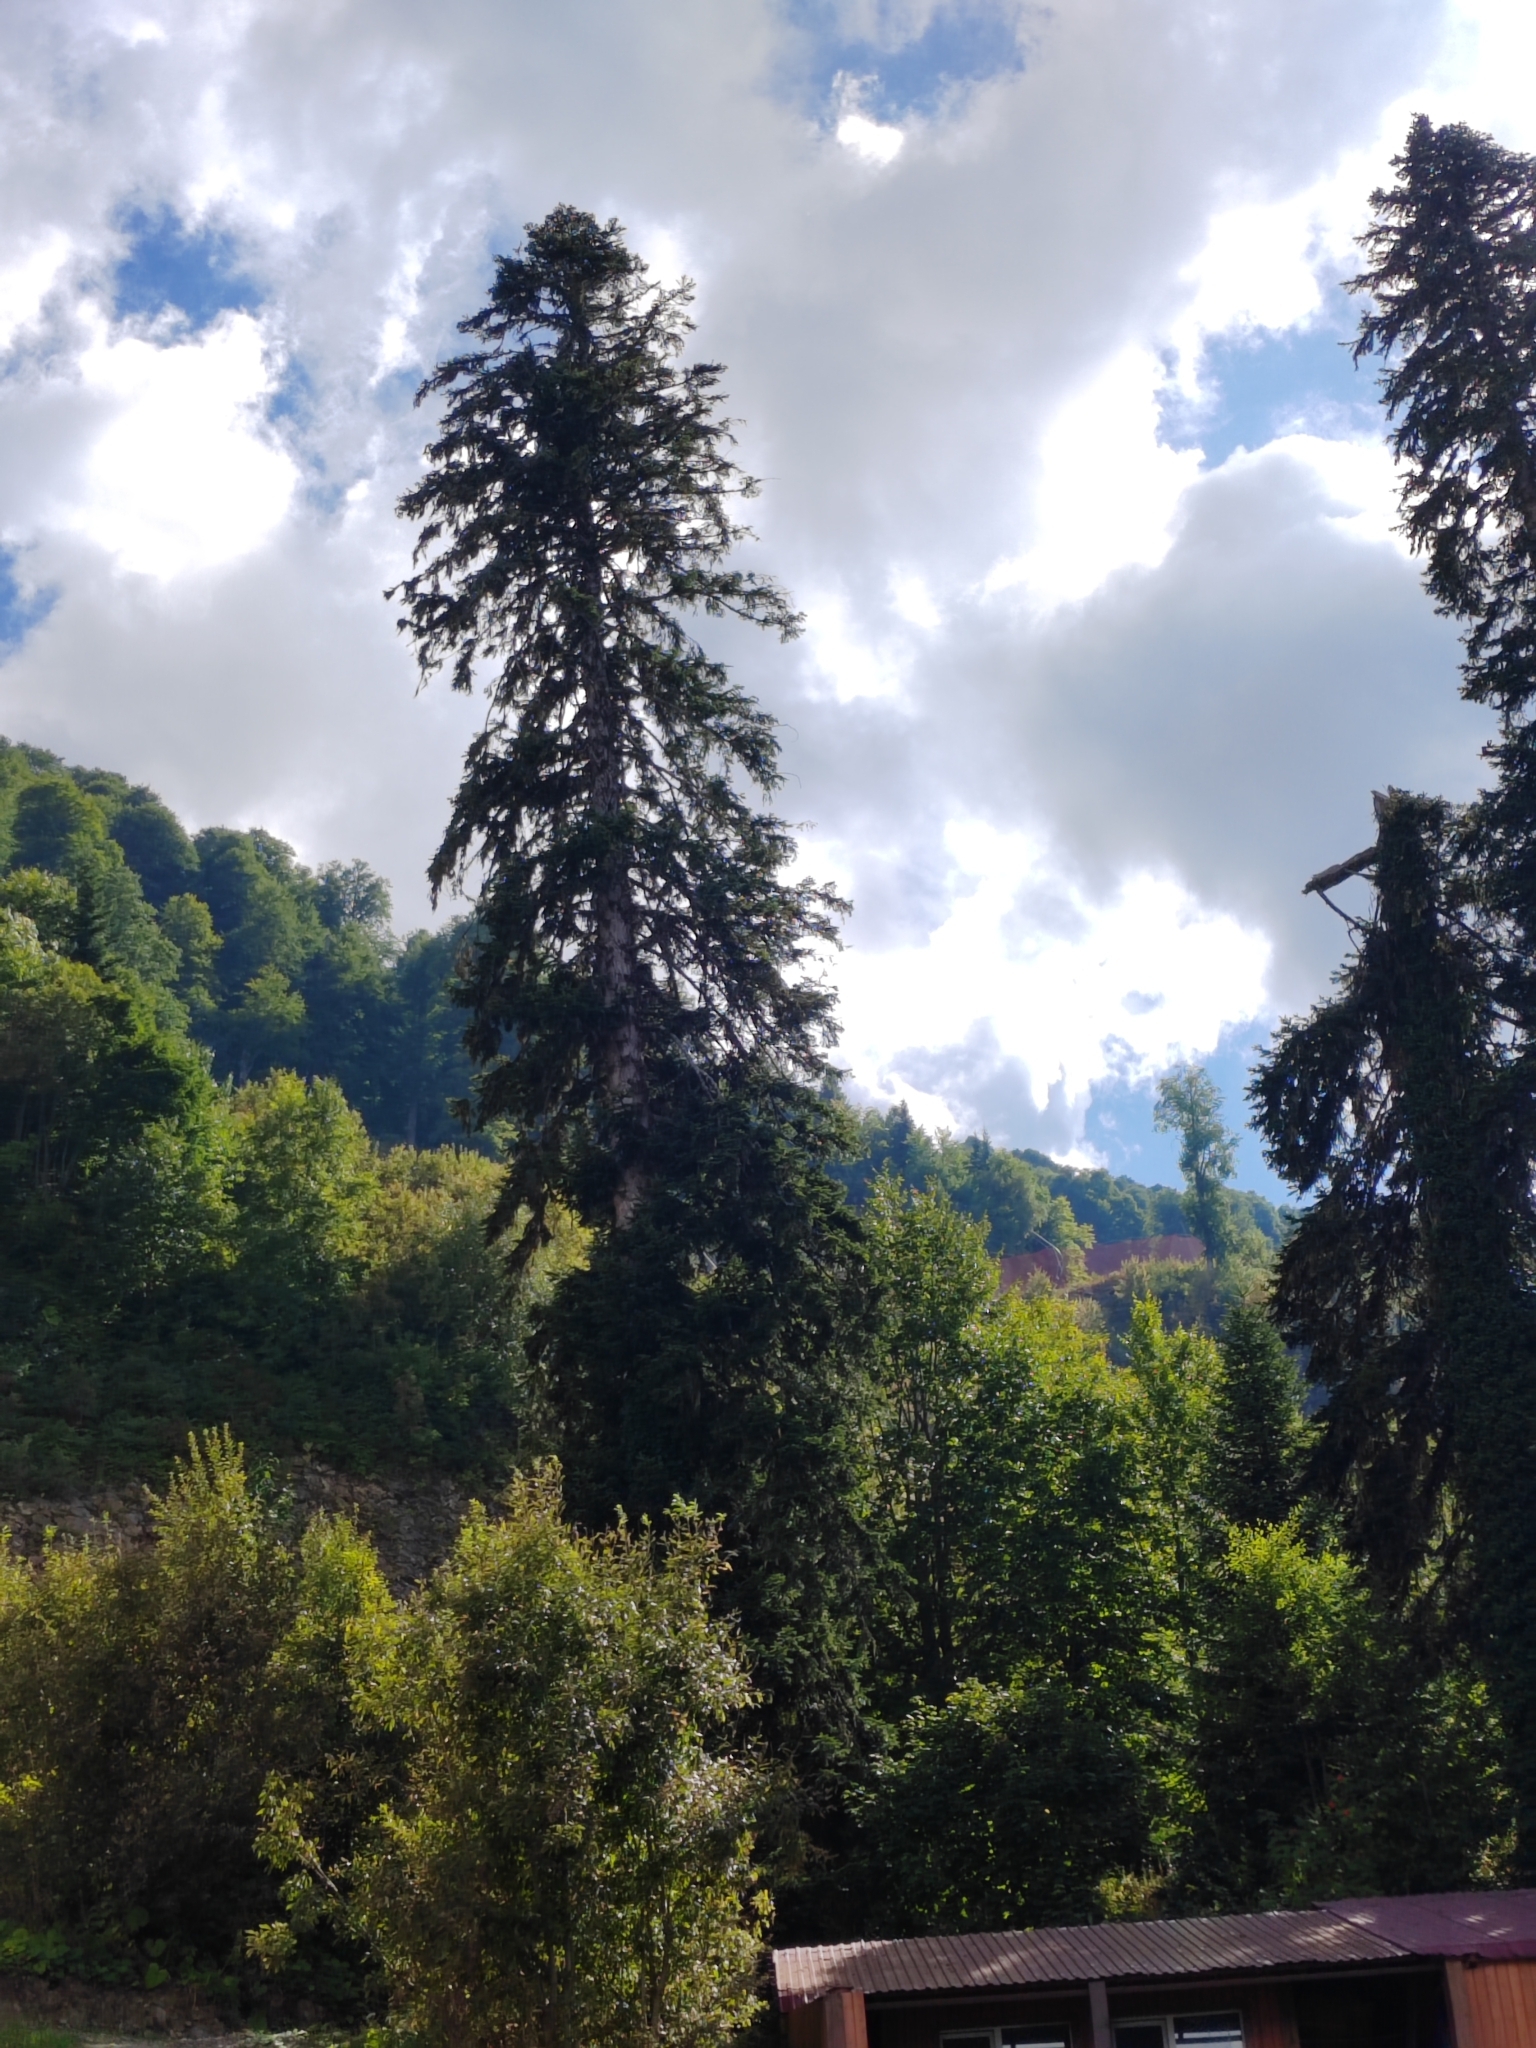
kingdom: Plantae
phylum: Tracheophyta
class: Pinopsida
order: Pinales
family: Pinaceae
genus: Abies
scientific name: Abies nordmanniana
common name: Caucasian fir
